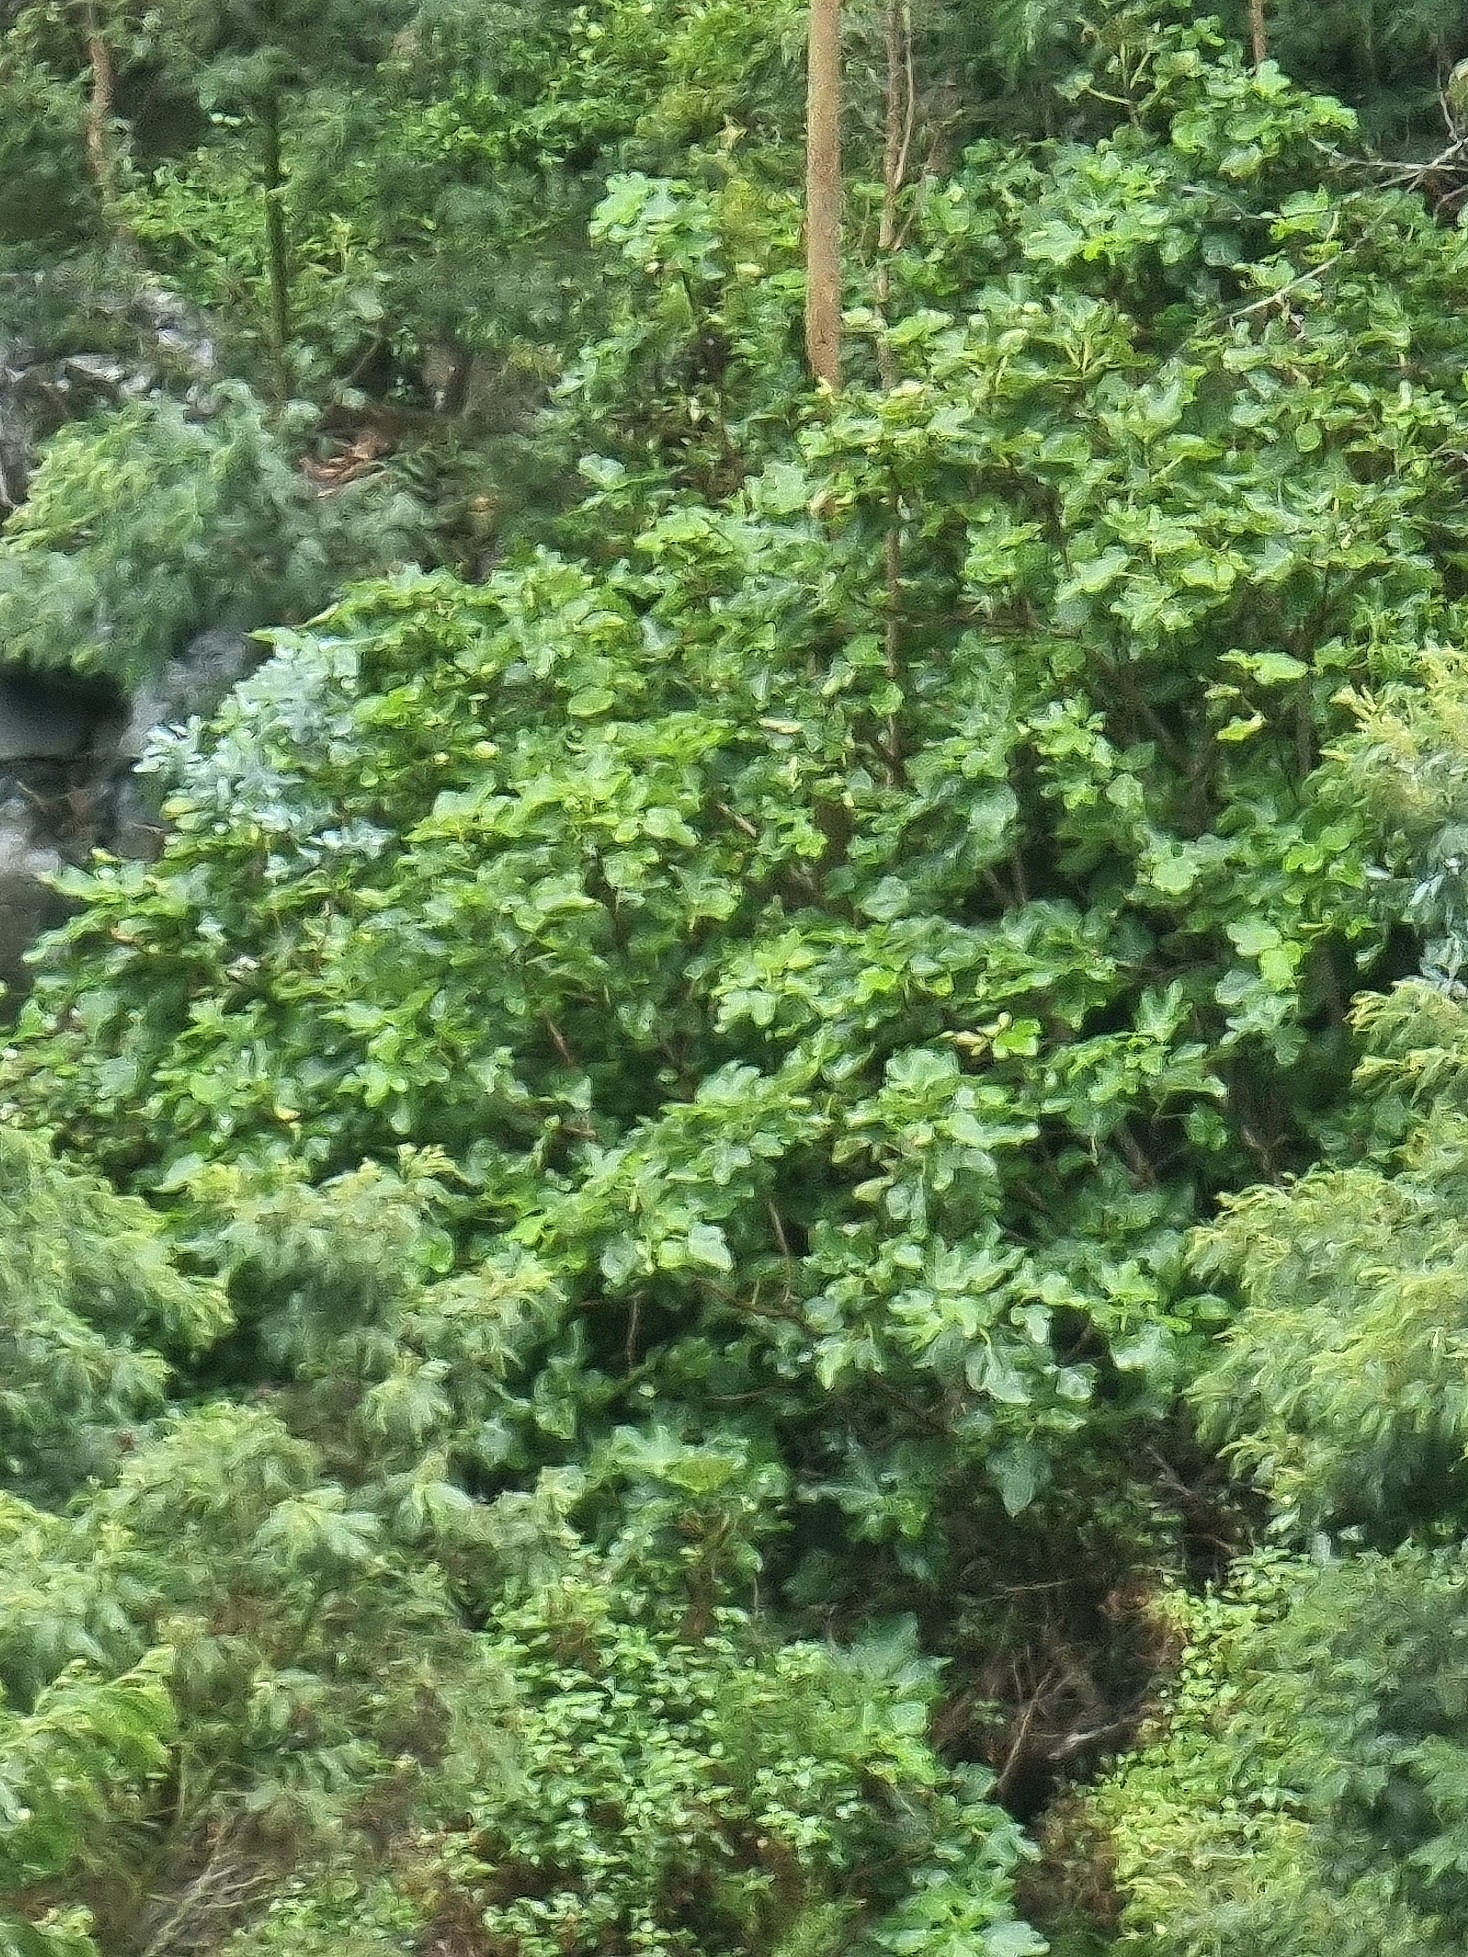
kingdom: Plantae
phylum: Tracheophyta
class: Magnoliopsida
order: Rosales
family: Moraceae
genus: Ficus
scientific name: Ficus carica
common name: Fig
